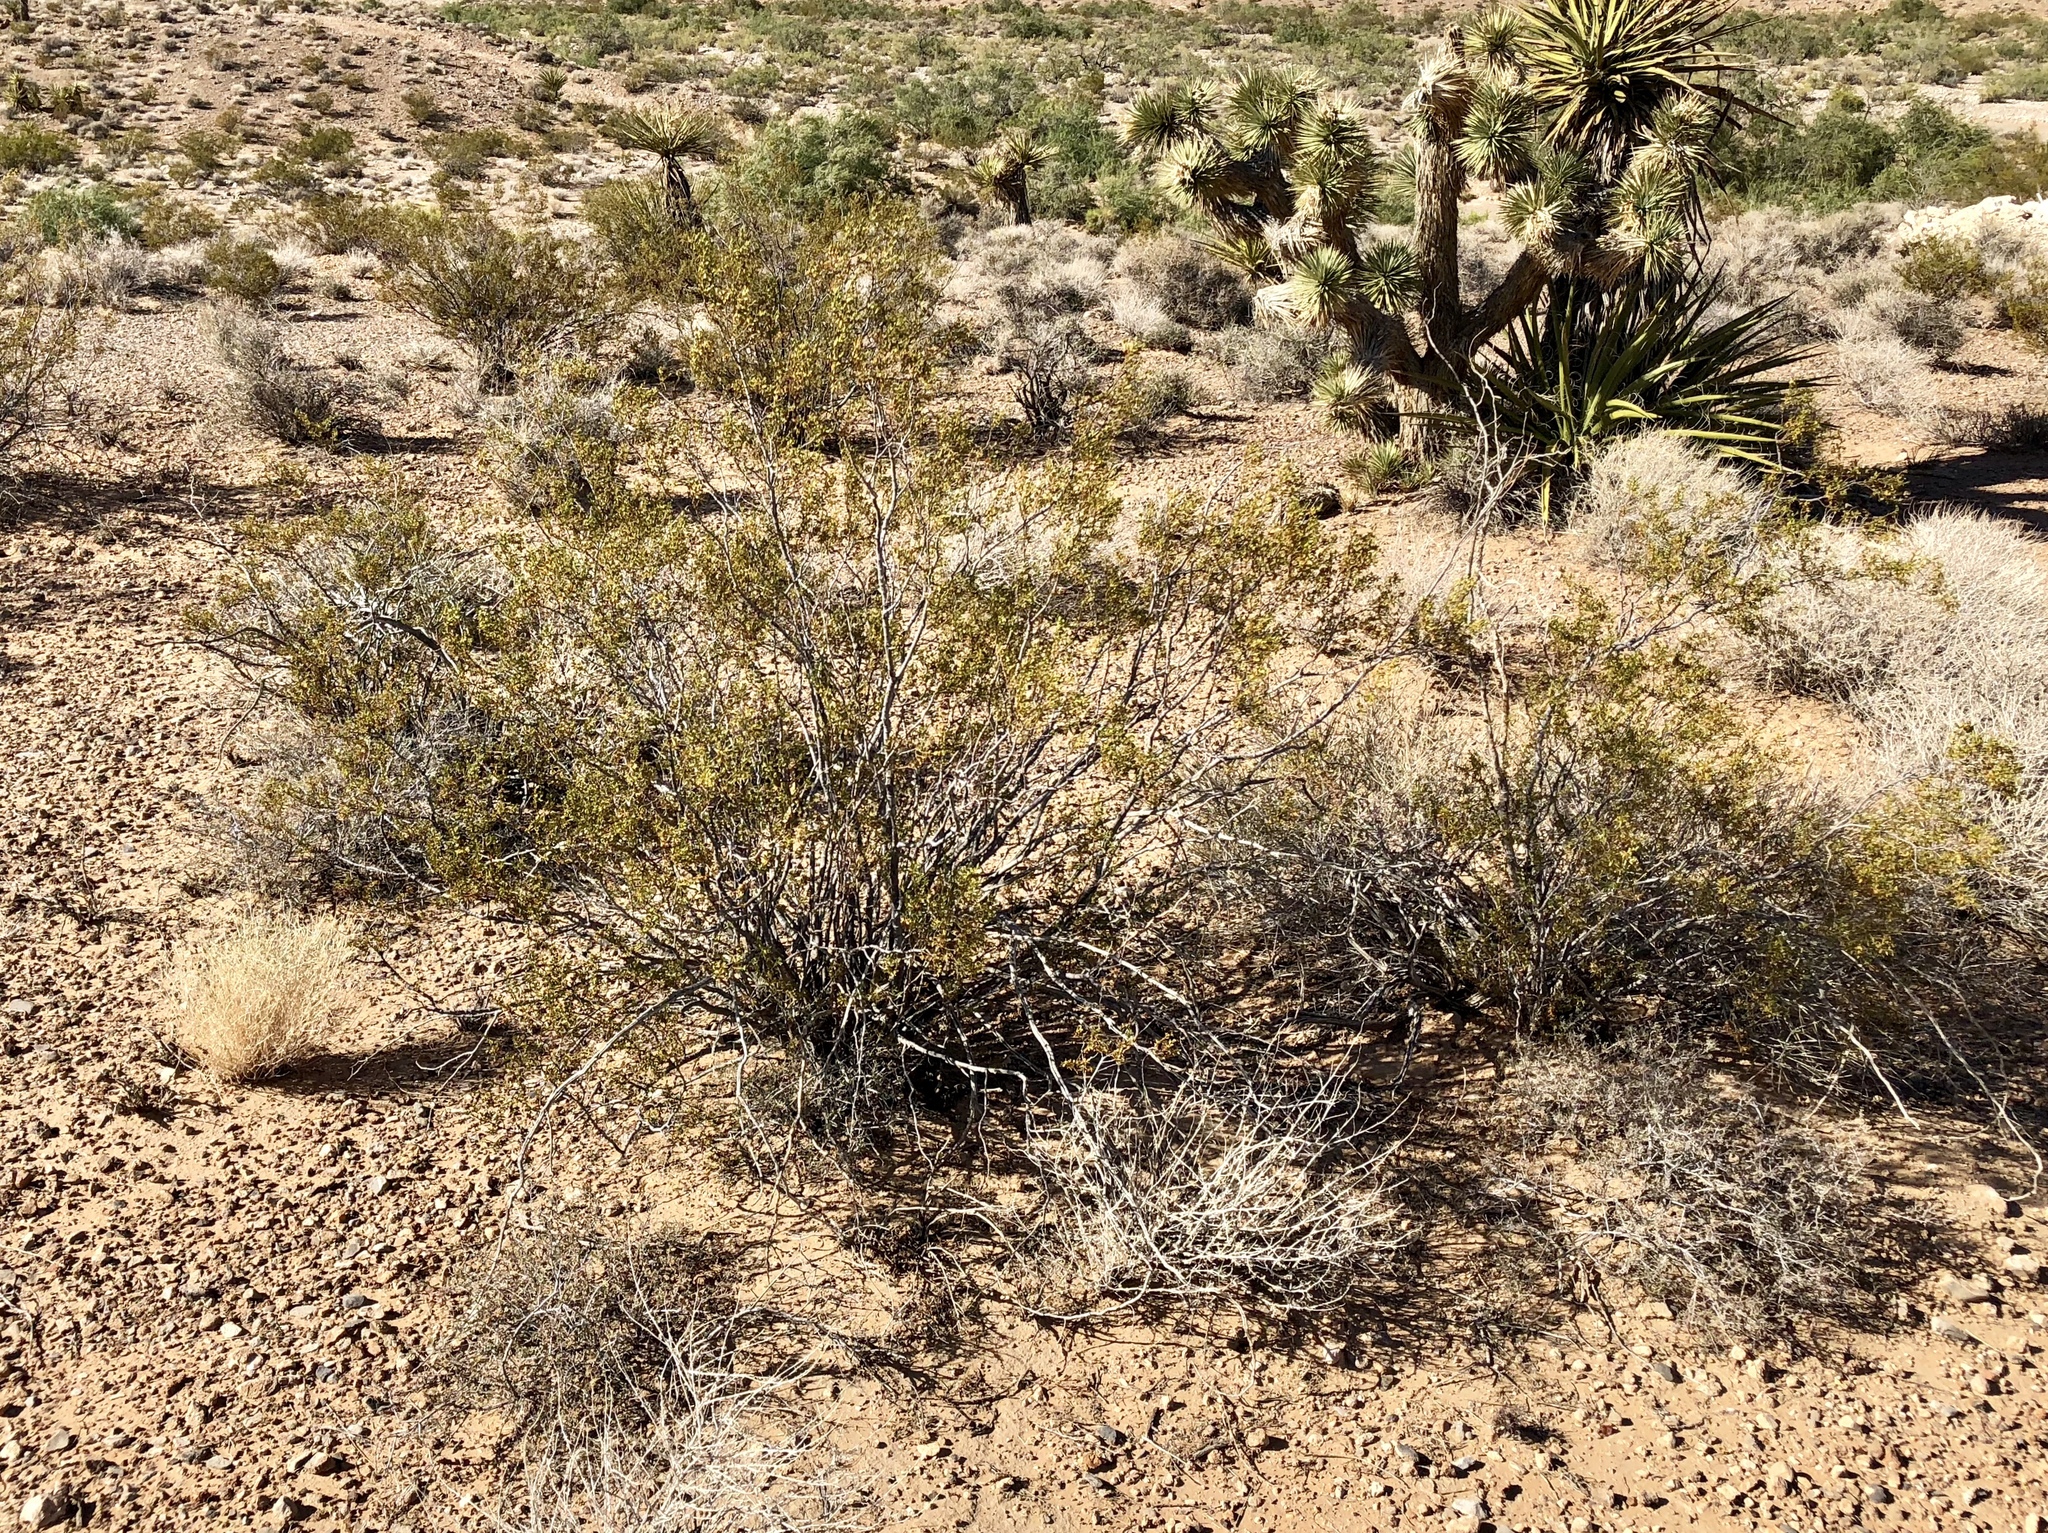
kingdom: Plantae
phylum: Tracheophyta
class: Magnoliopsida
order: Zygophyllales
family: Zygophyllaceae
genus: Larrea
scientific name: Larrea tridentata
